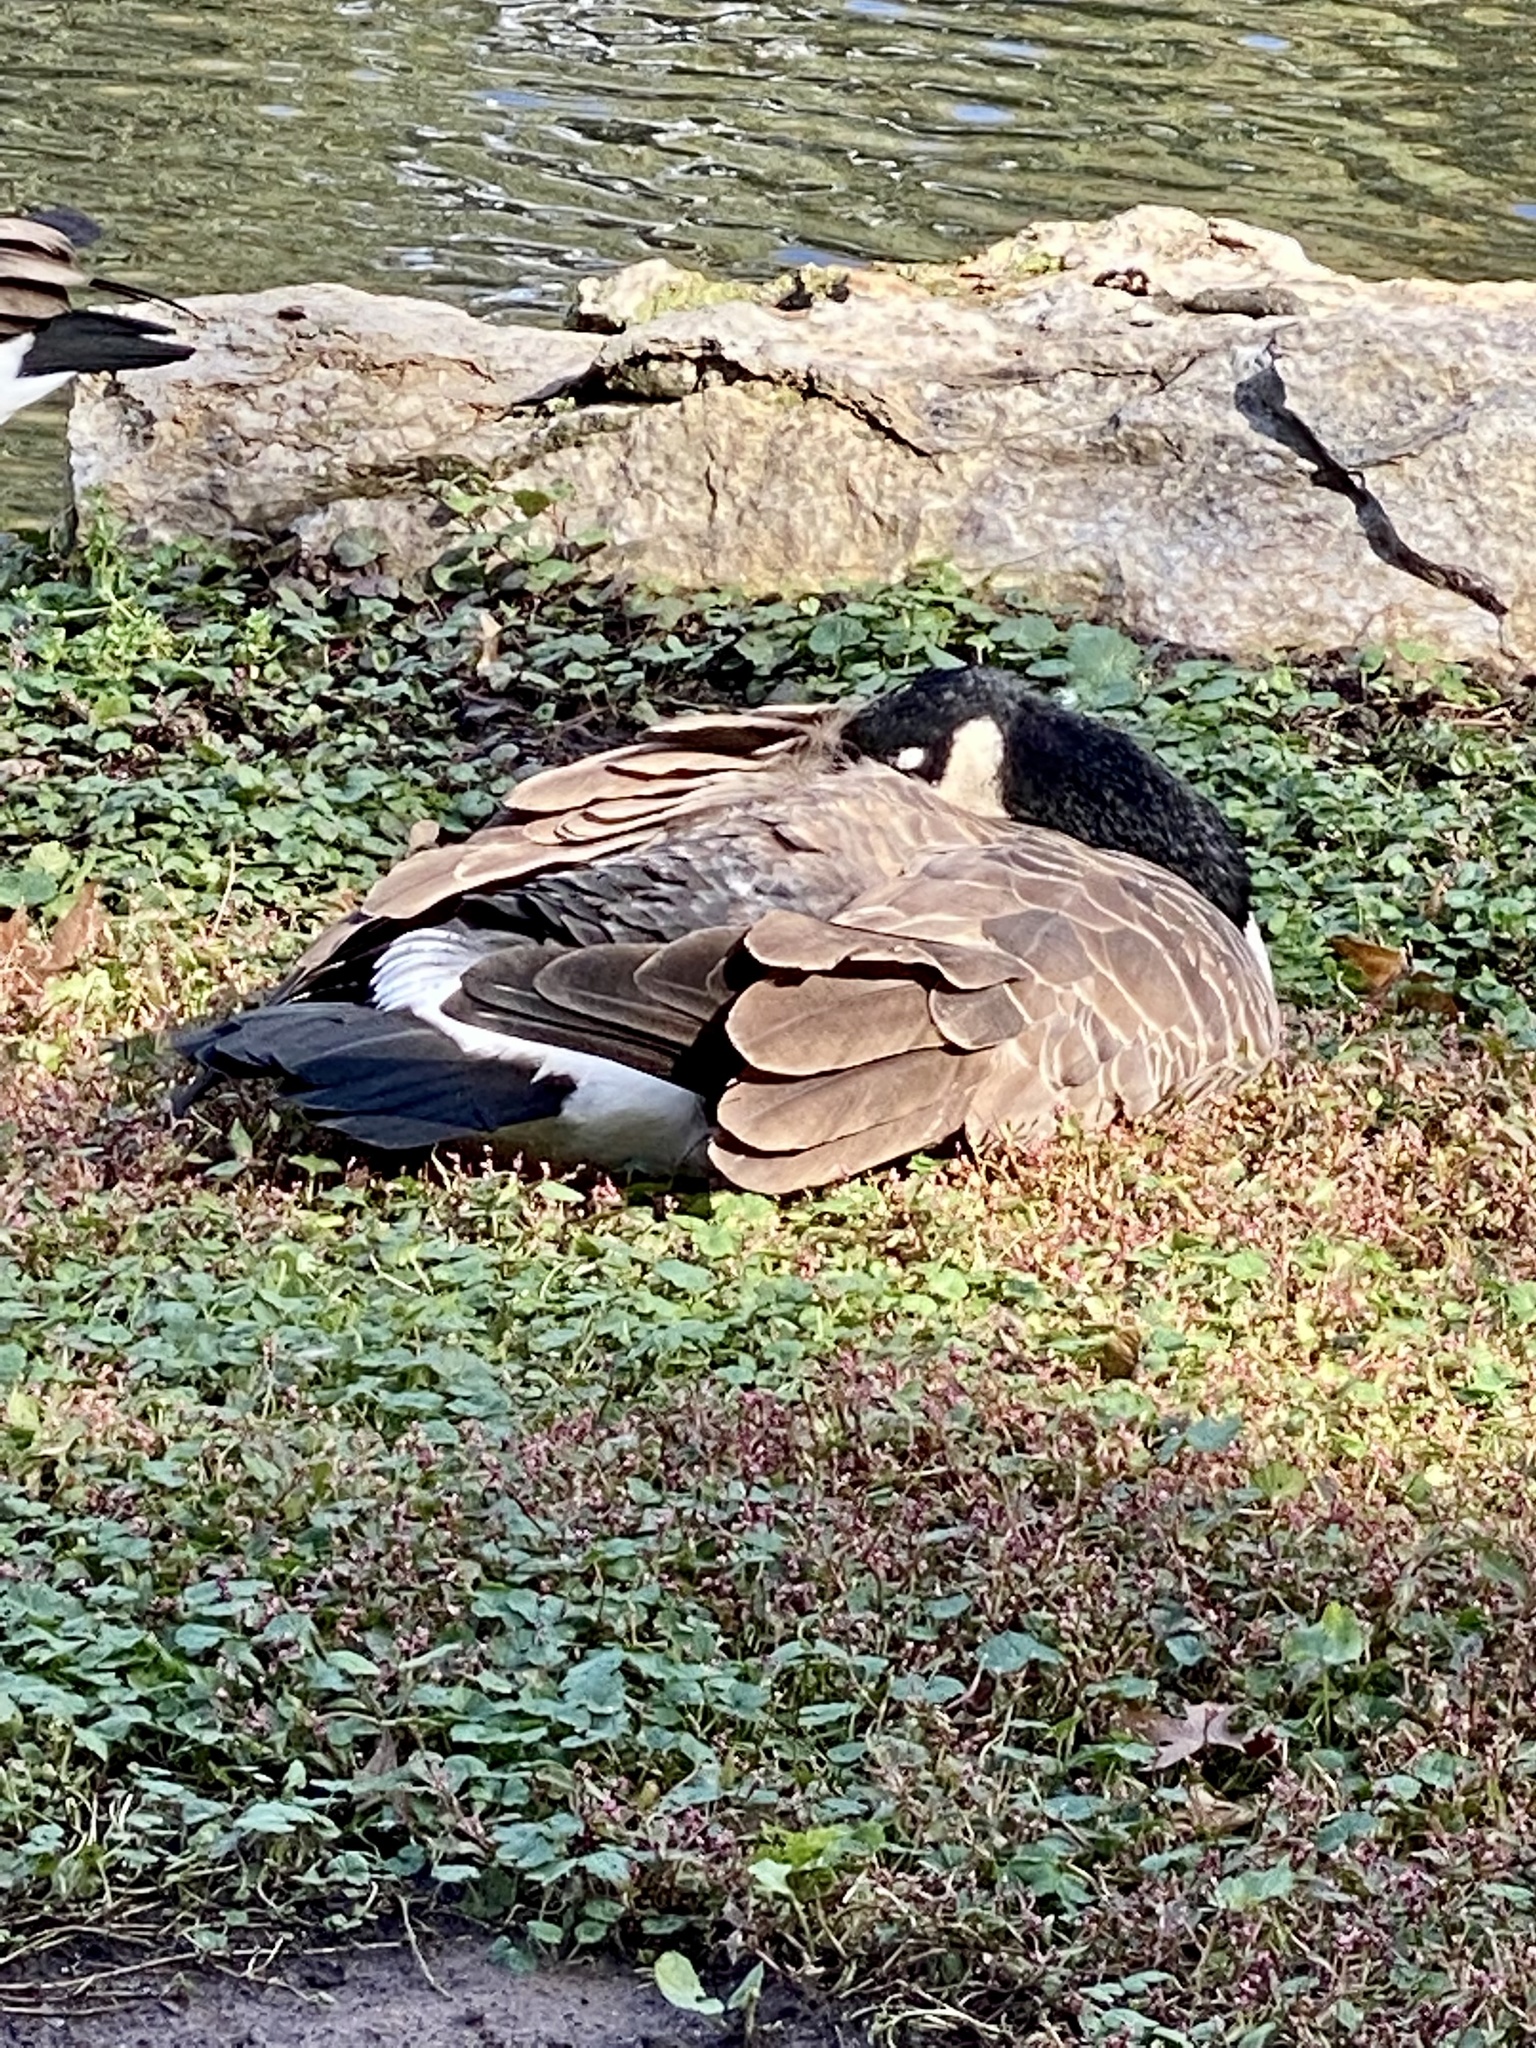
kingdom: Animalia
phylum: Chordata
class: Aves
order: Anseriformes
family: Anatidae
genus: Branta
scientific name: Branta canadensis
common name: Canada goose
